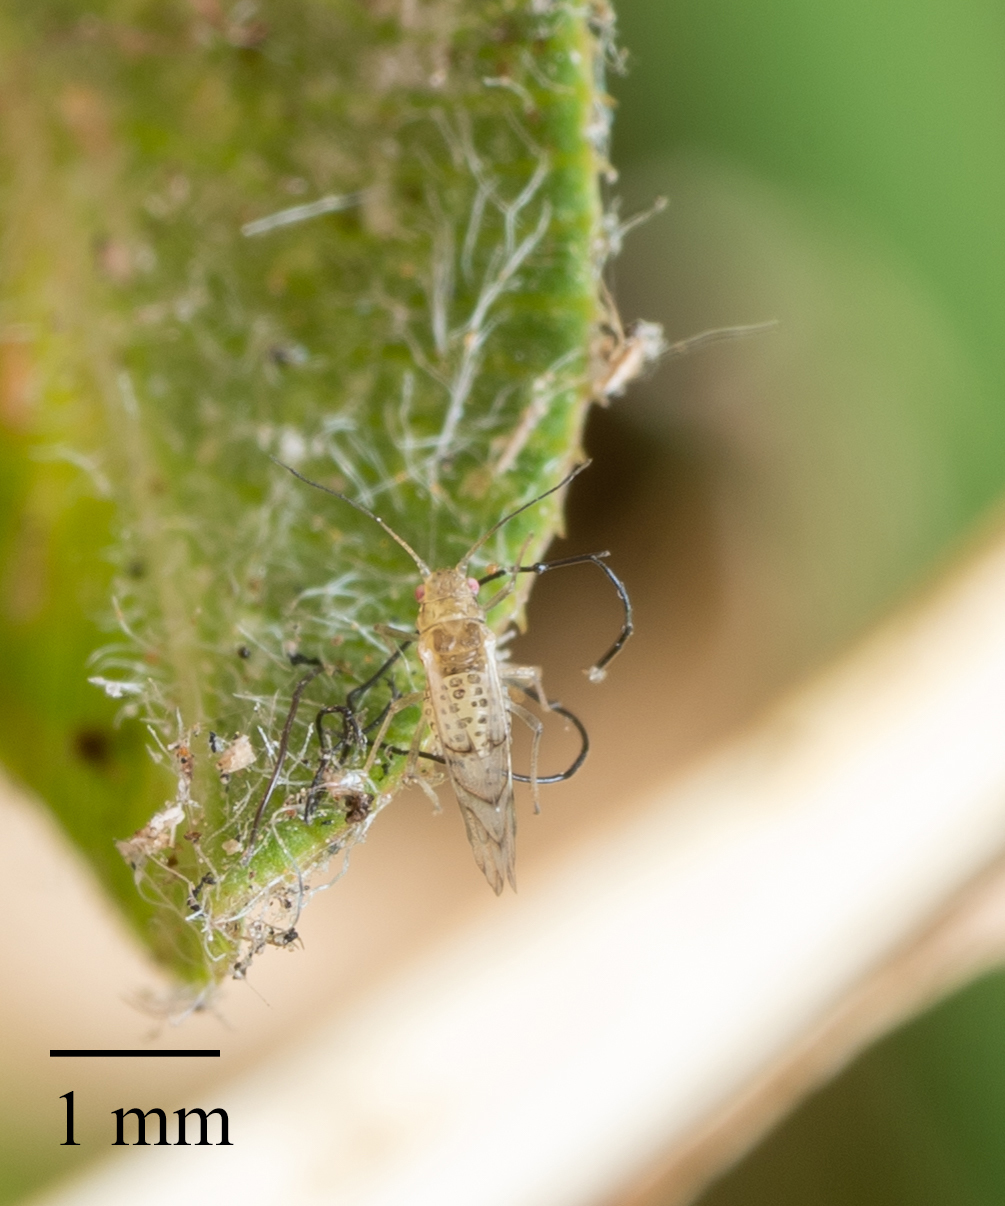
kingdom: Animalia
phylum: Arthropoda
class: Insecta
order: Hemiptera
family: Aphididae
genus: Therioaphis
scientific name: Therioaphis trifolii
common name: Spotted alfalfa aphid
